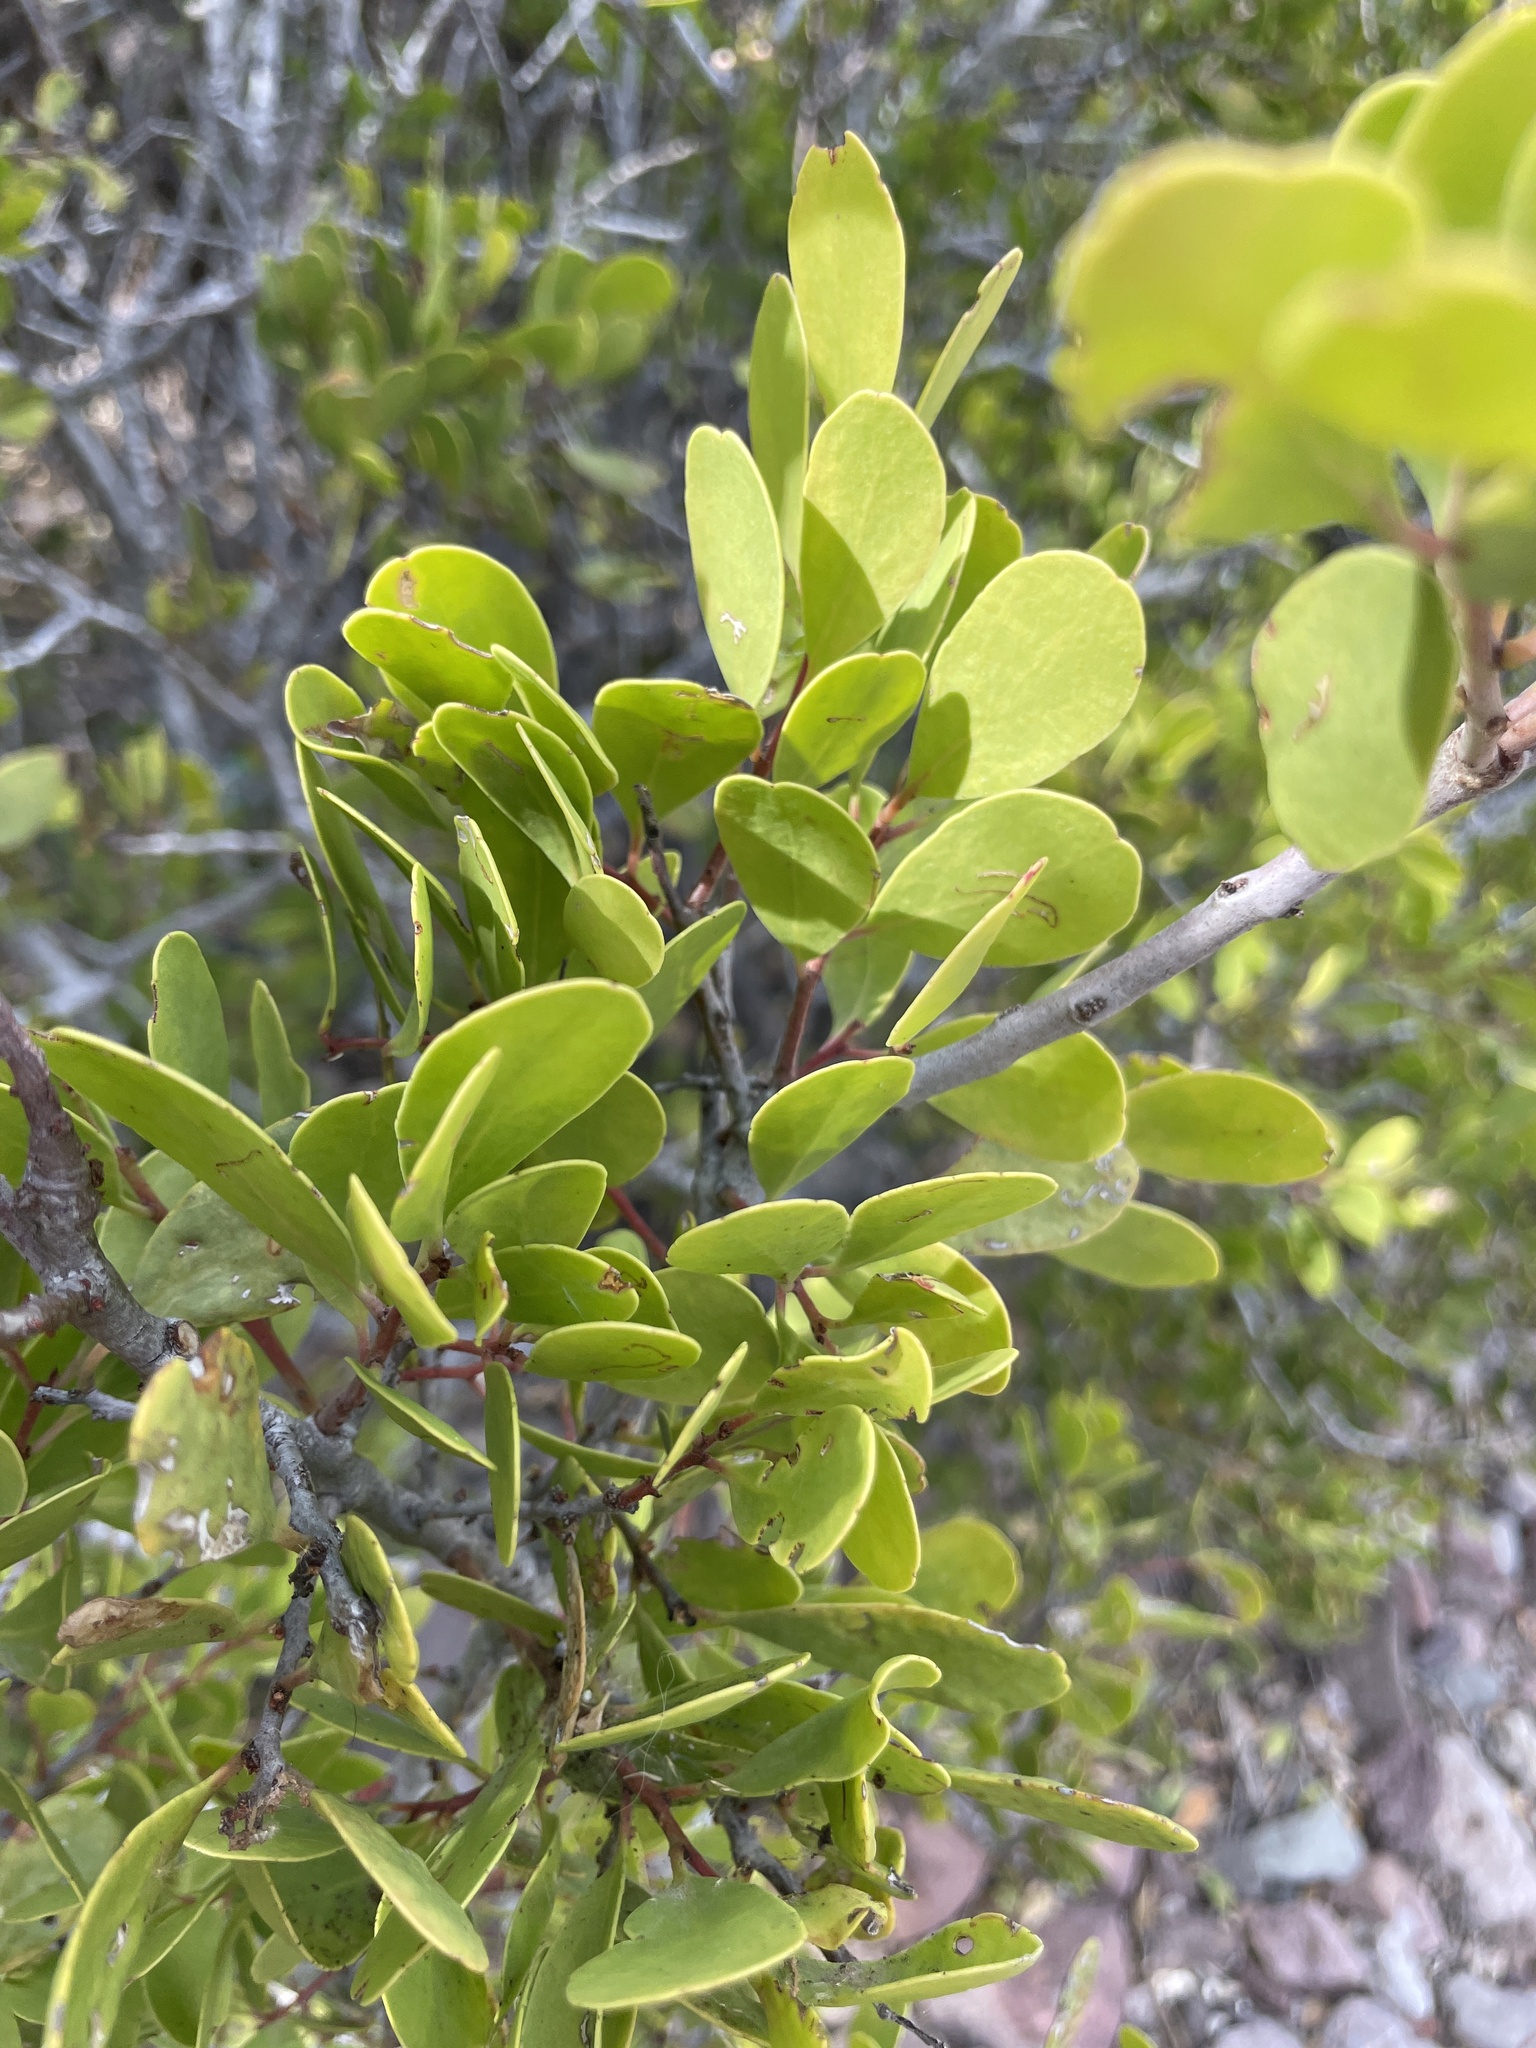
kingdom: Plantae
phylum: Tracheophyta
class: Magnoliopsida
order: Celastrales
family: Celastraceae
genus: Tricerma
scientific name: Tricerma phyllanthoides
